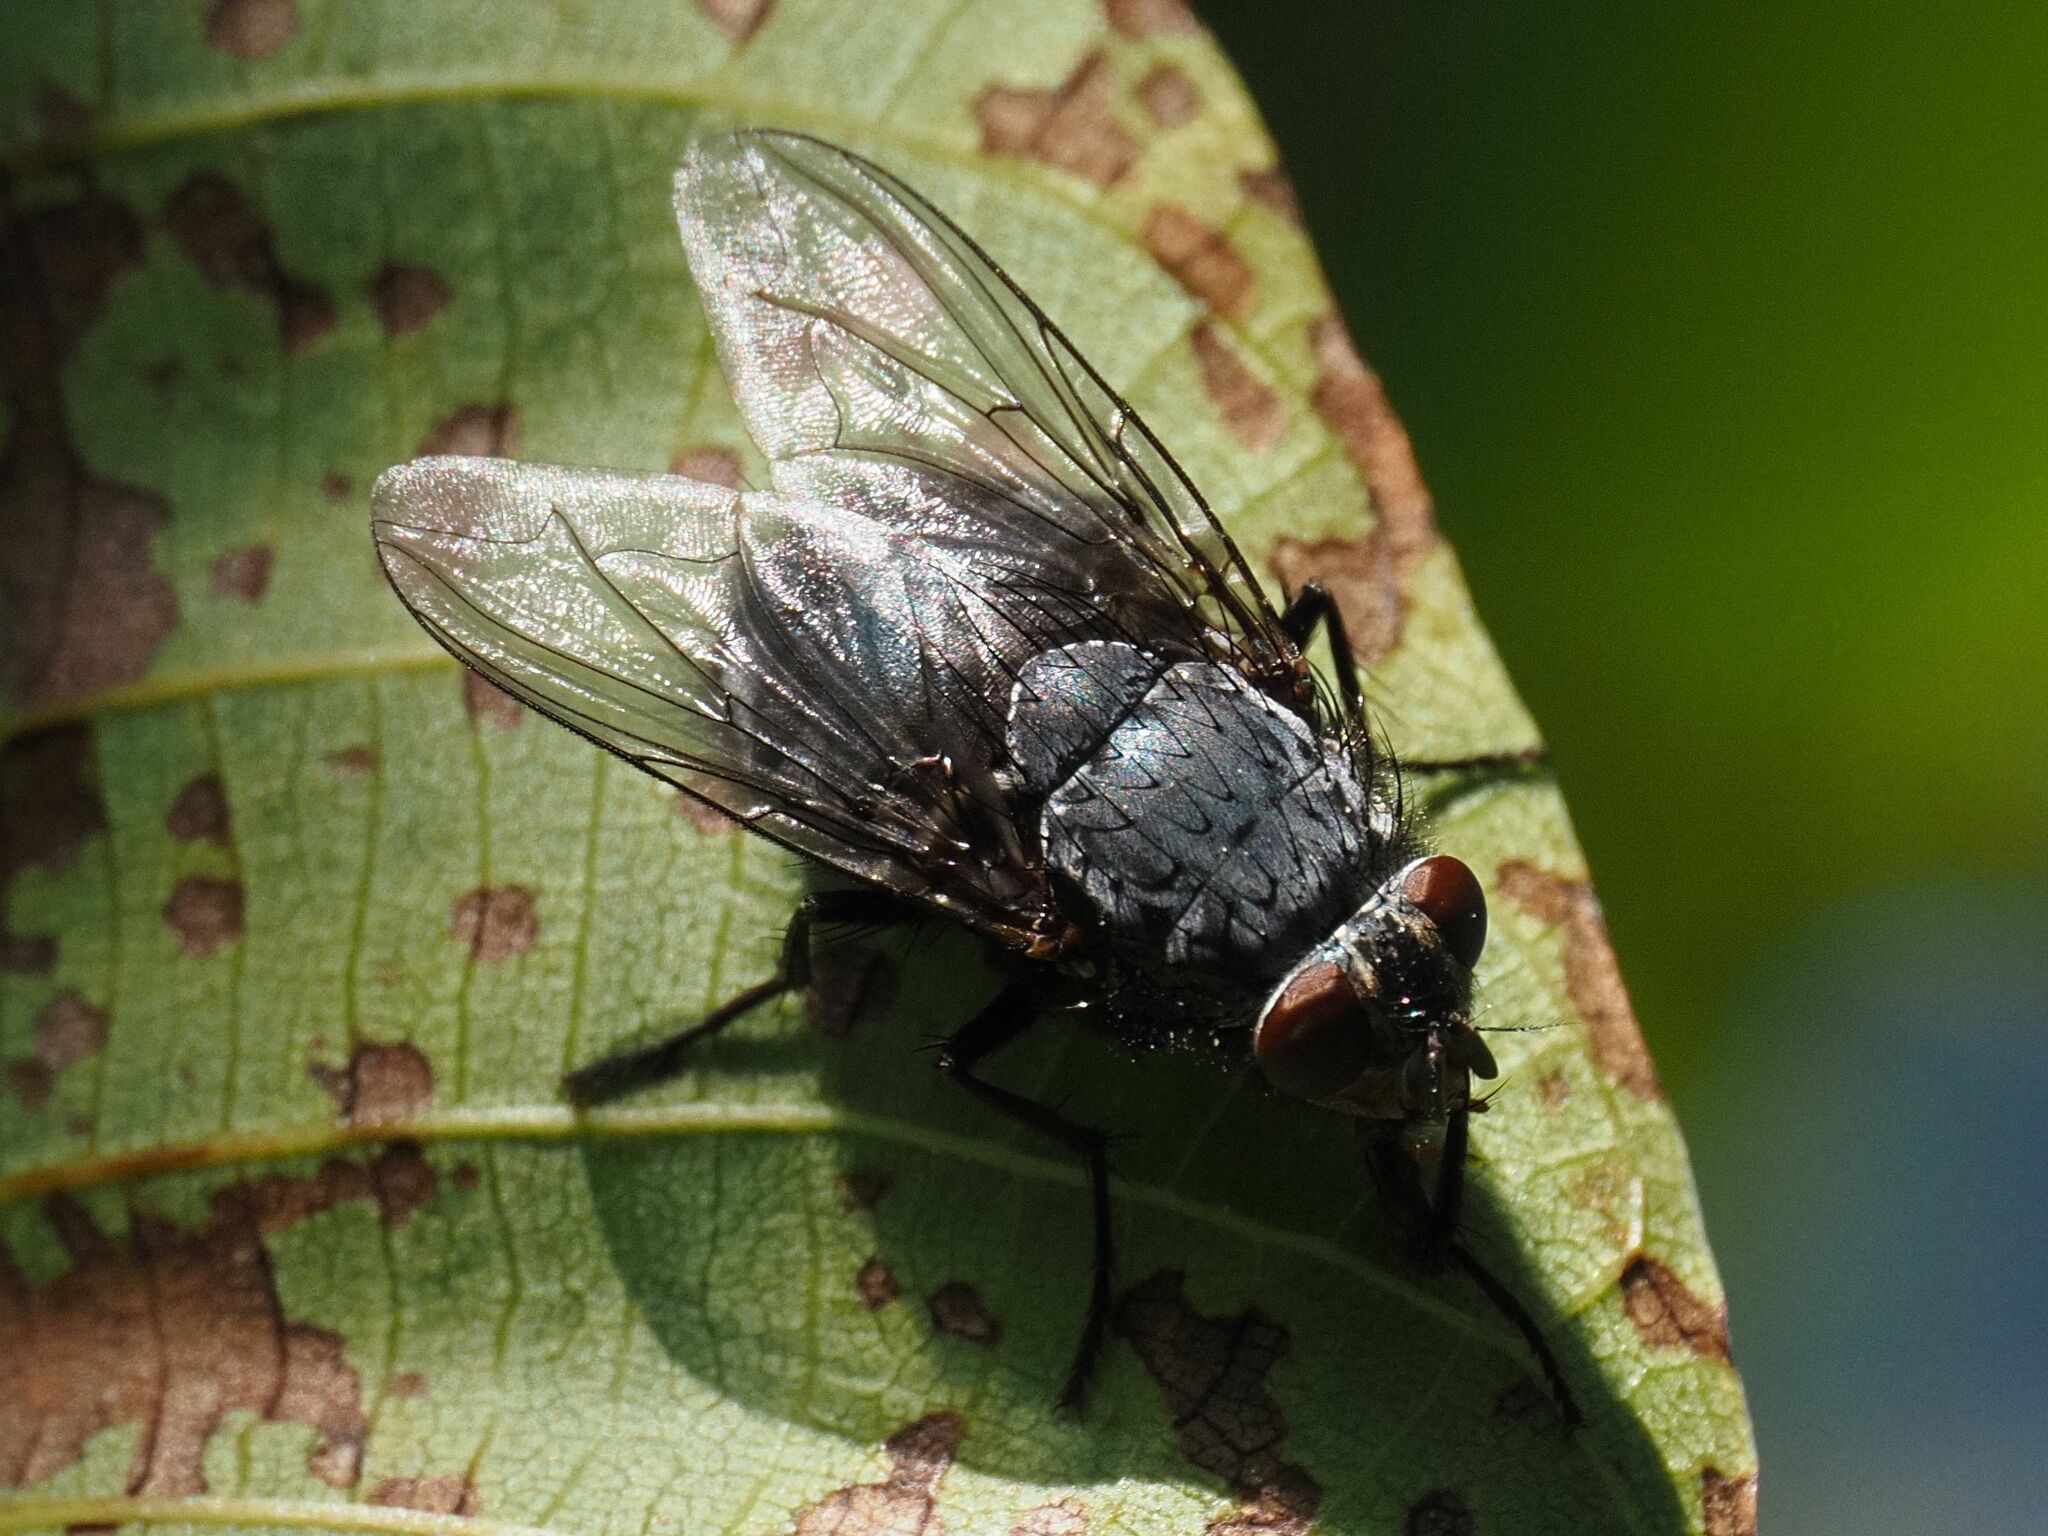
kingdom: Animalia
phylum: Arthropoda
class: Insecta
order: Diptera
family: Calliphoridae
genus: Calliphora
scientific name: Calliphora vicina
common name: Common blow flie
